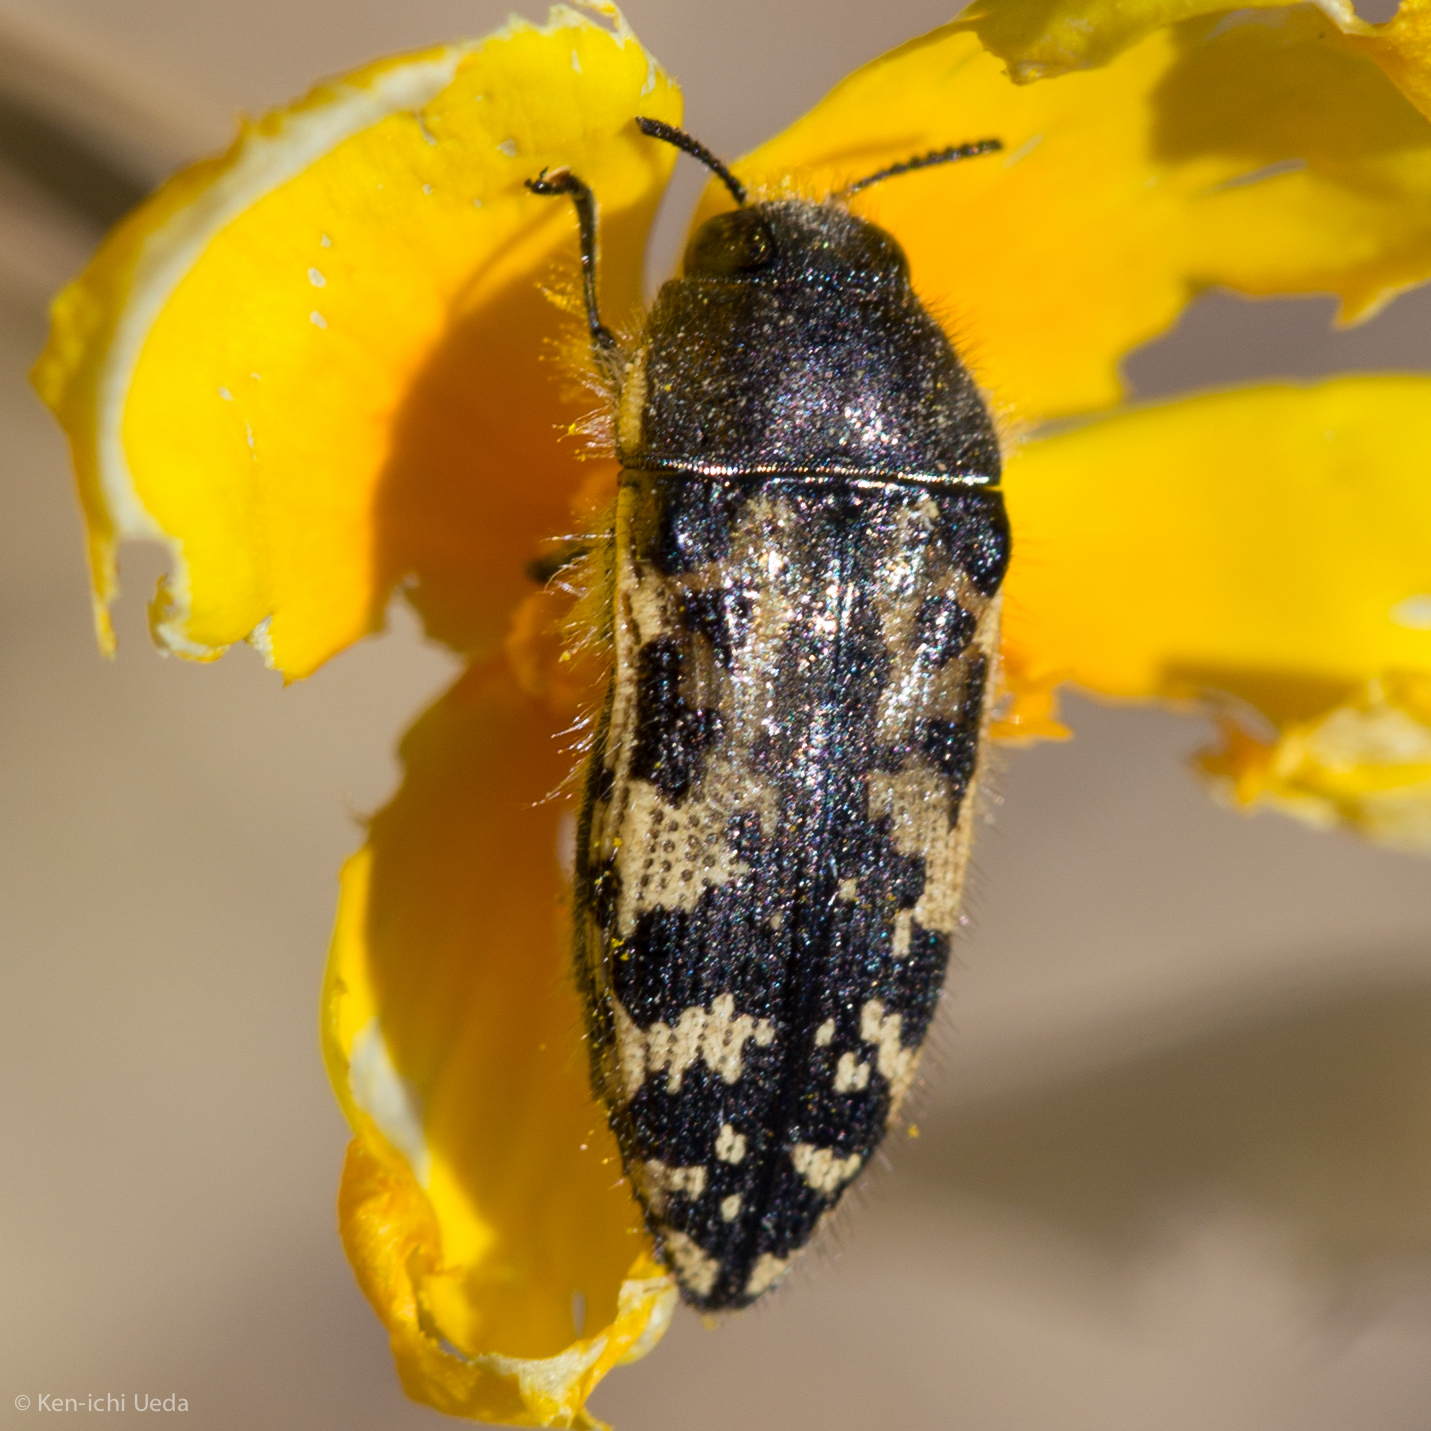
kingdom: Animalia
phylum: Arthropoda
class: Insecta
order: Coleoptera
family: Buprestidae
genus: Acmaeodera
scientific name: Acmaeodera hepburnii
